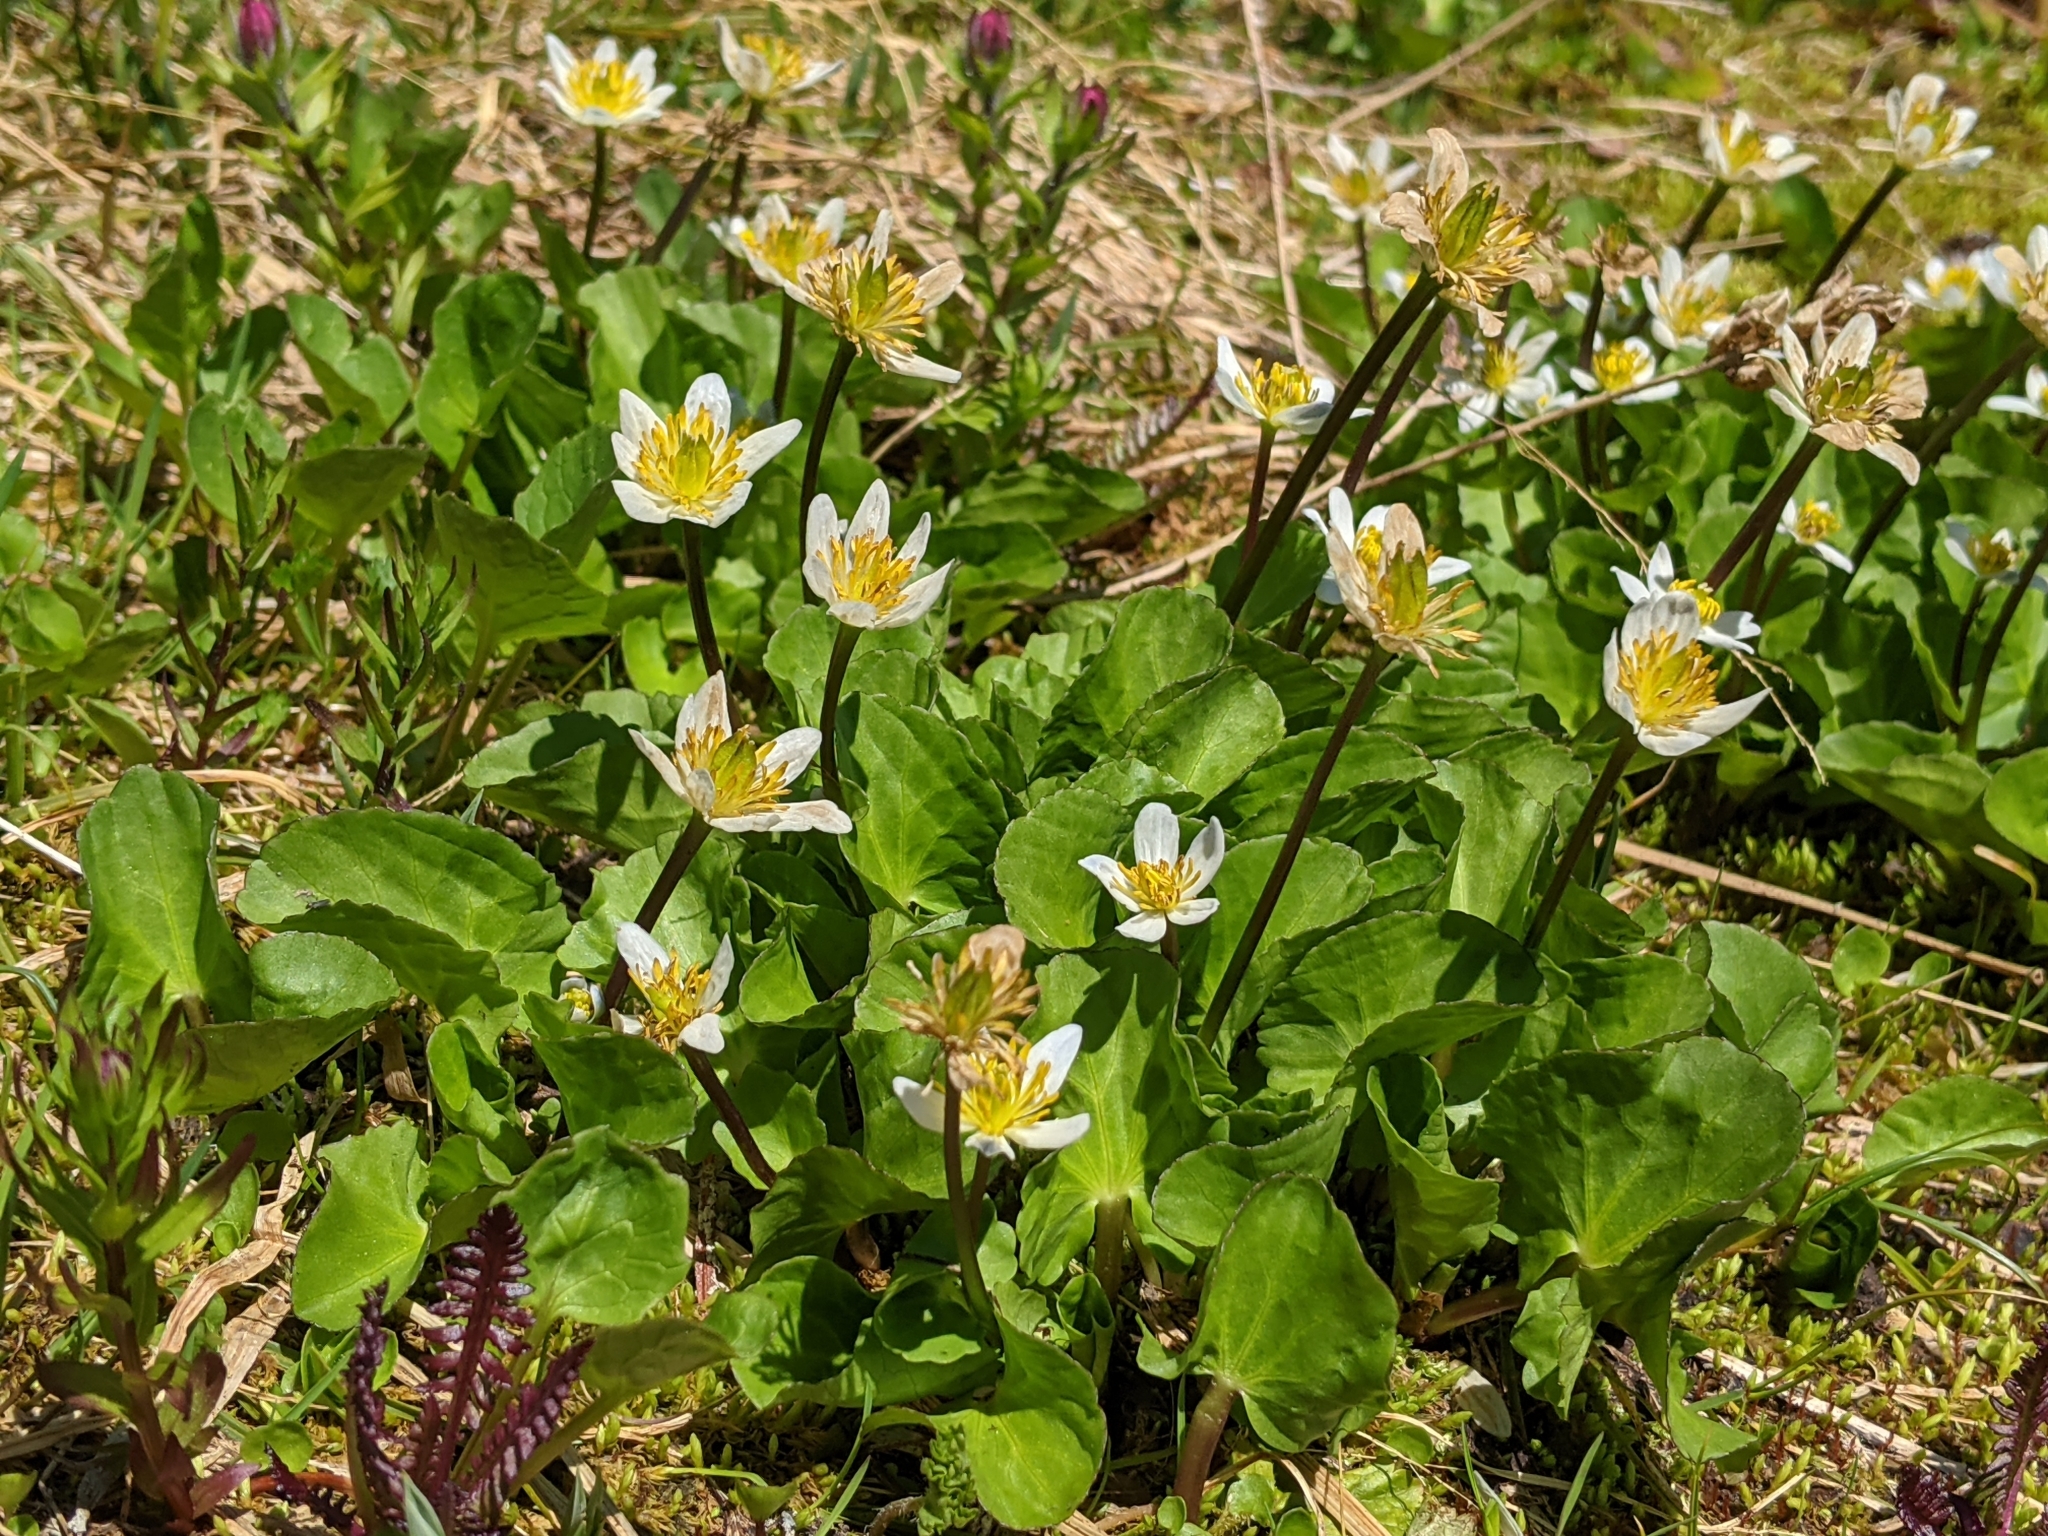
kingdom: Plantae
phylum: Tracheophyta
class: Magnoliopsida
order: Ranunculales
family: Ranunculaceae
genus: Caltha
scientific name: Caltha leptosepala
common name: Elkslip
